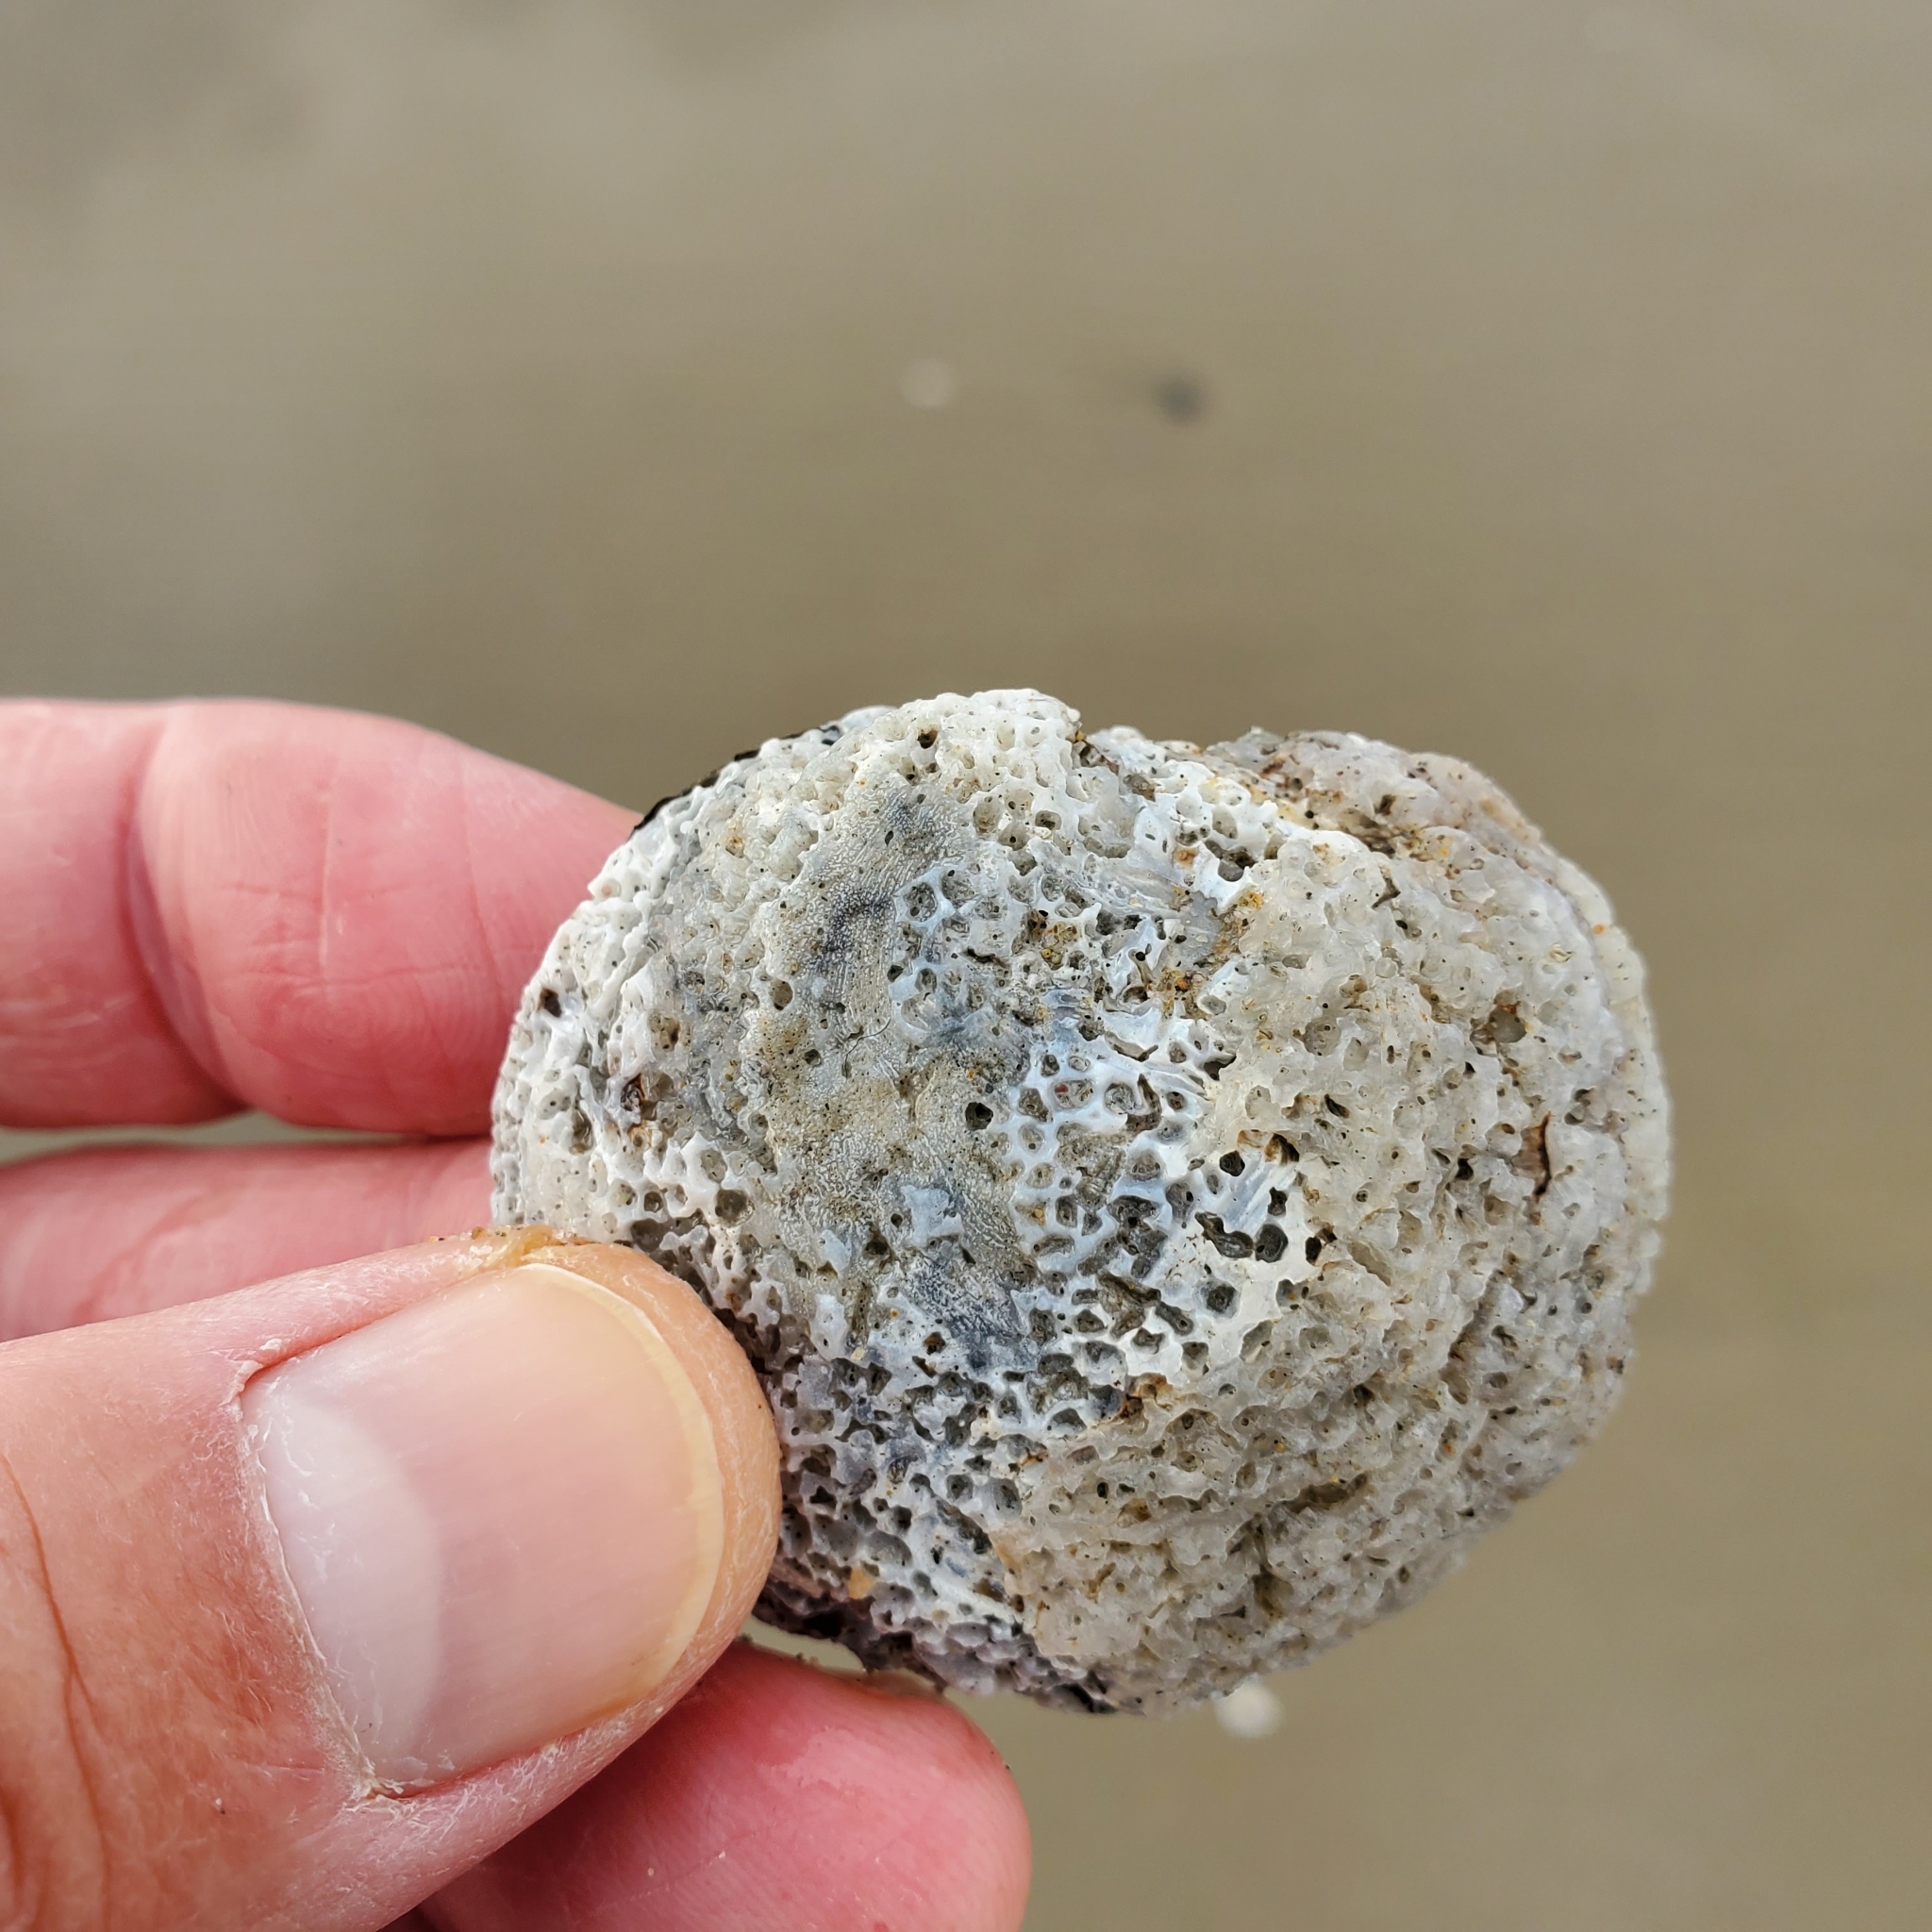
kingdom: Animalia
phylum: Mollusca
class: Bivalvia
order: Venerida
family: Chamidae
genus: Chama
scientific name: Chama arcana
